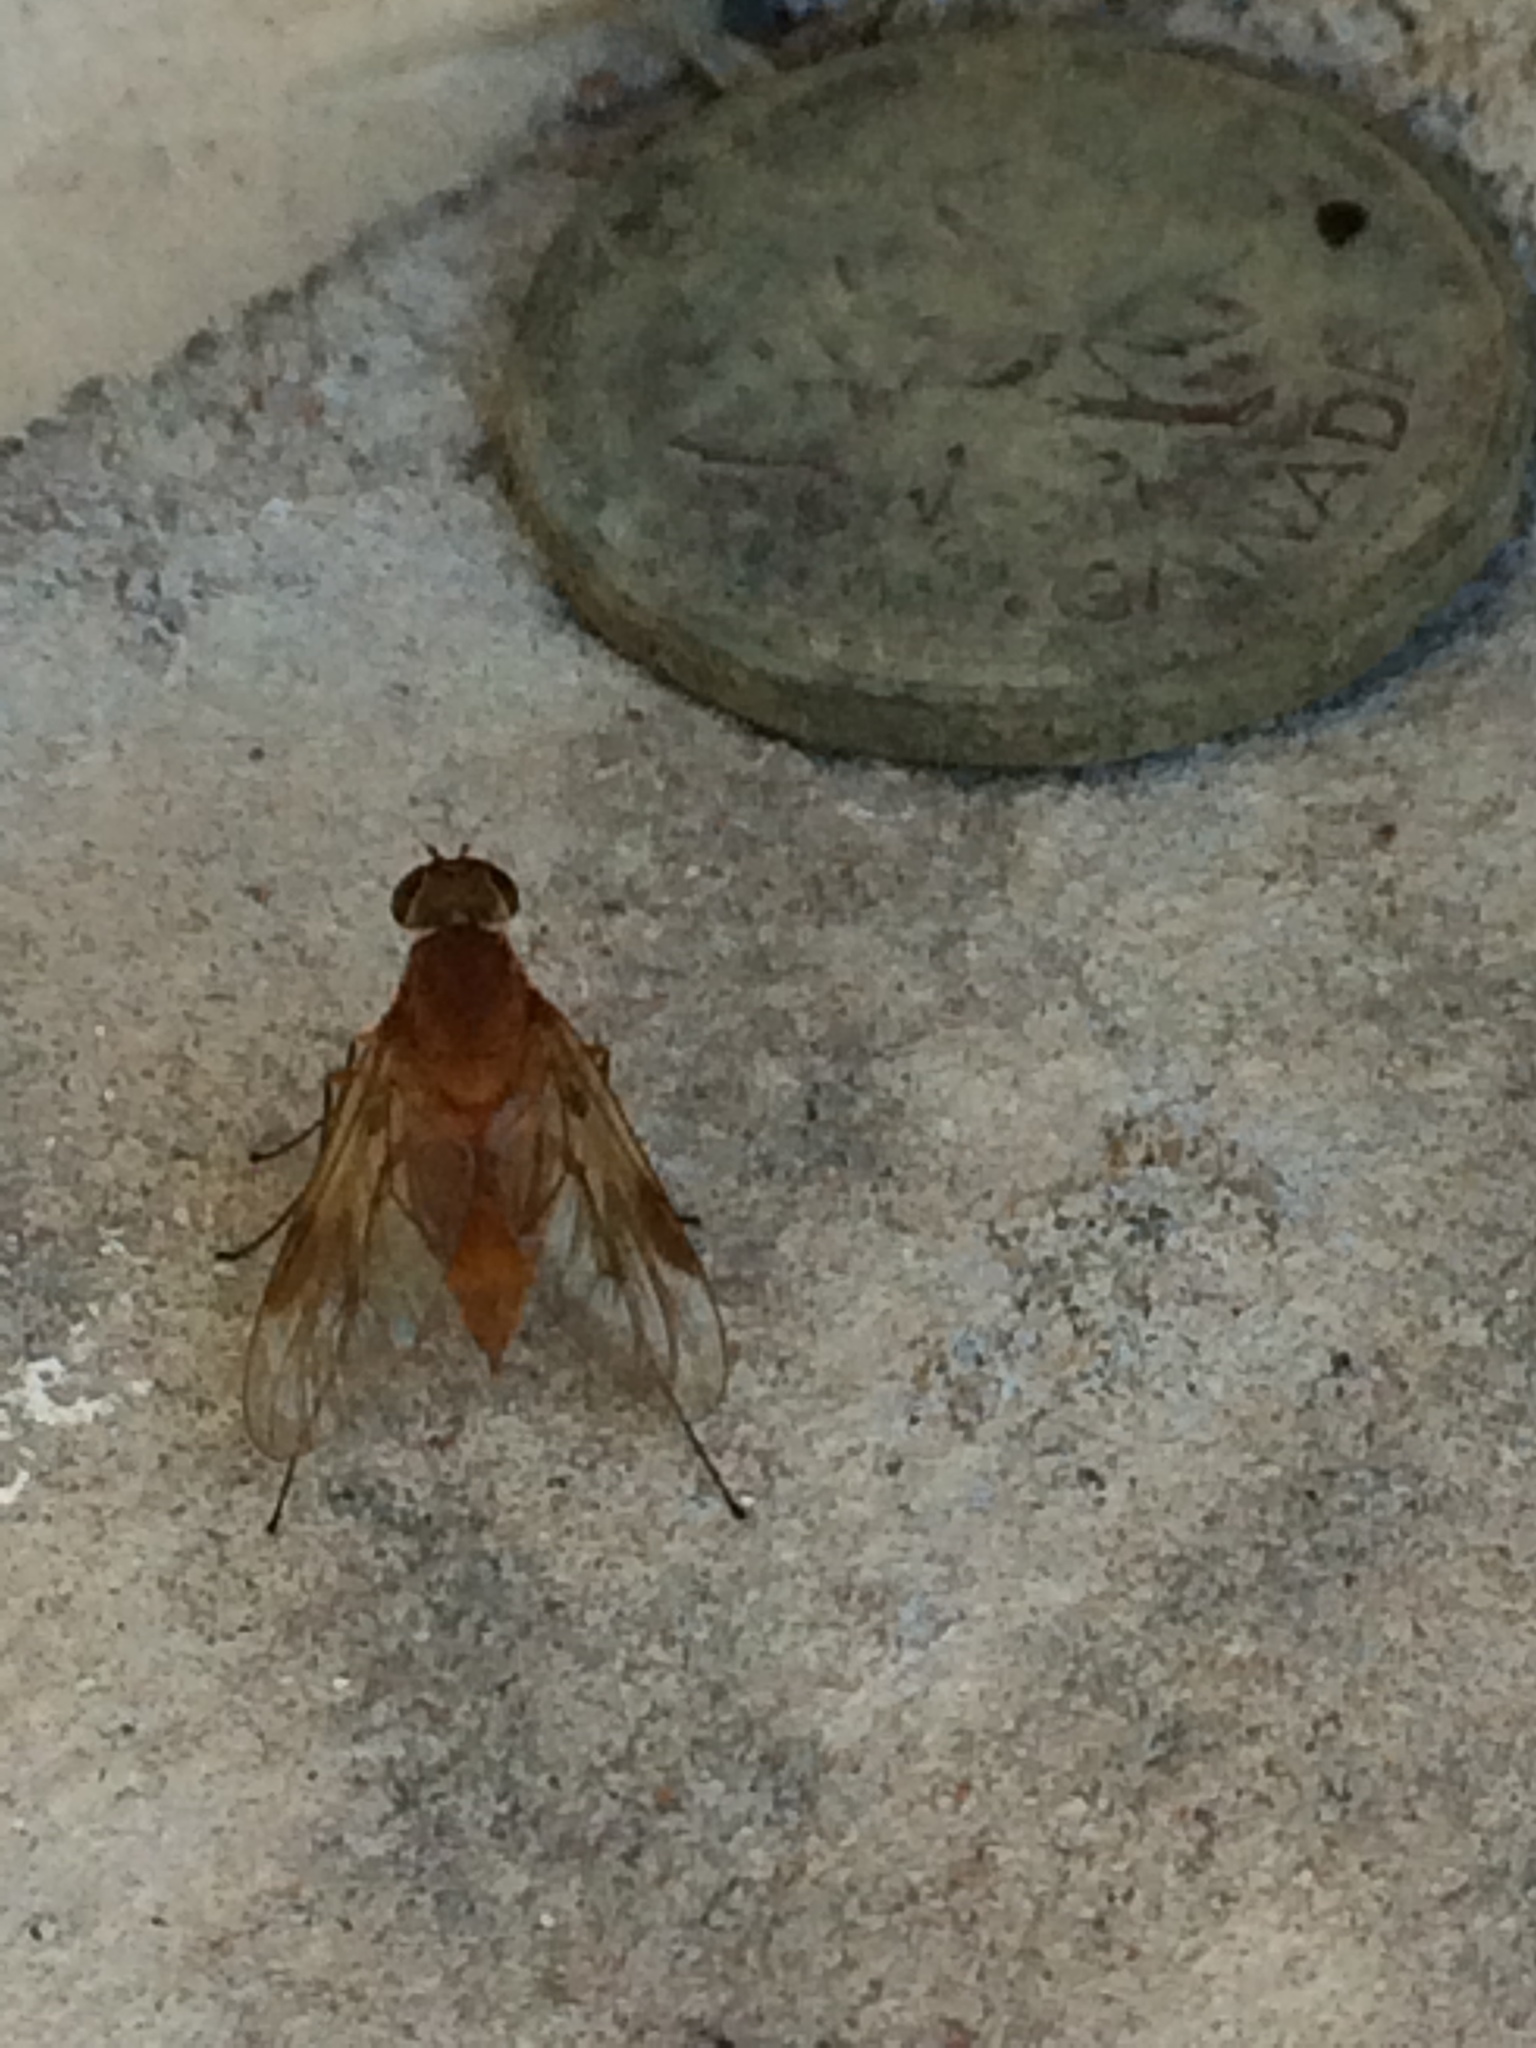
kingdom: Animalia
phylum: Arthropoda
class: Insecta
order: Diptera
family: Rhagionidae
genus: Chrysopilus
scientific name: Chrysopilus quadratus
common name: Quadrate snipe fly
